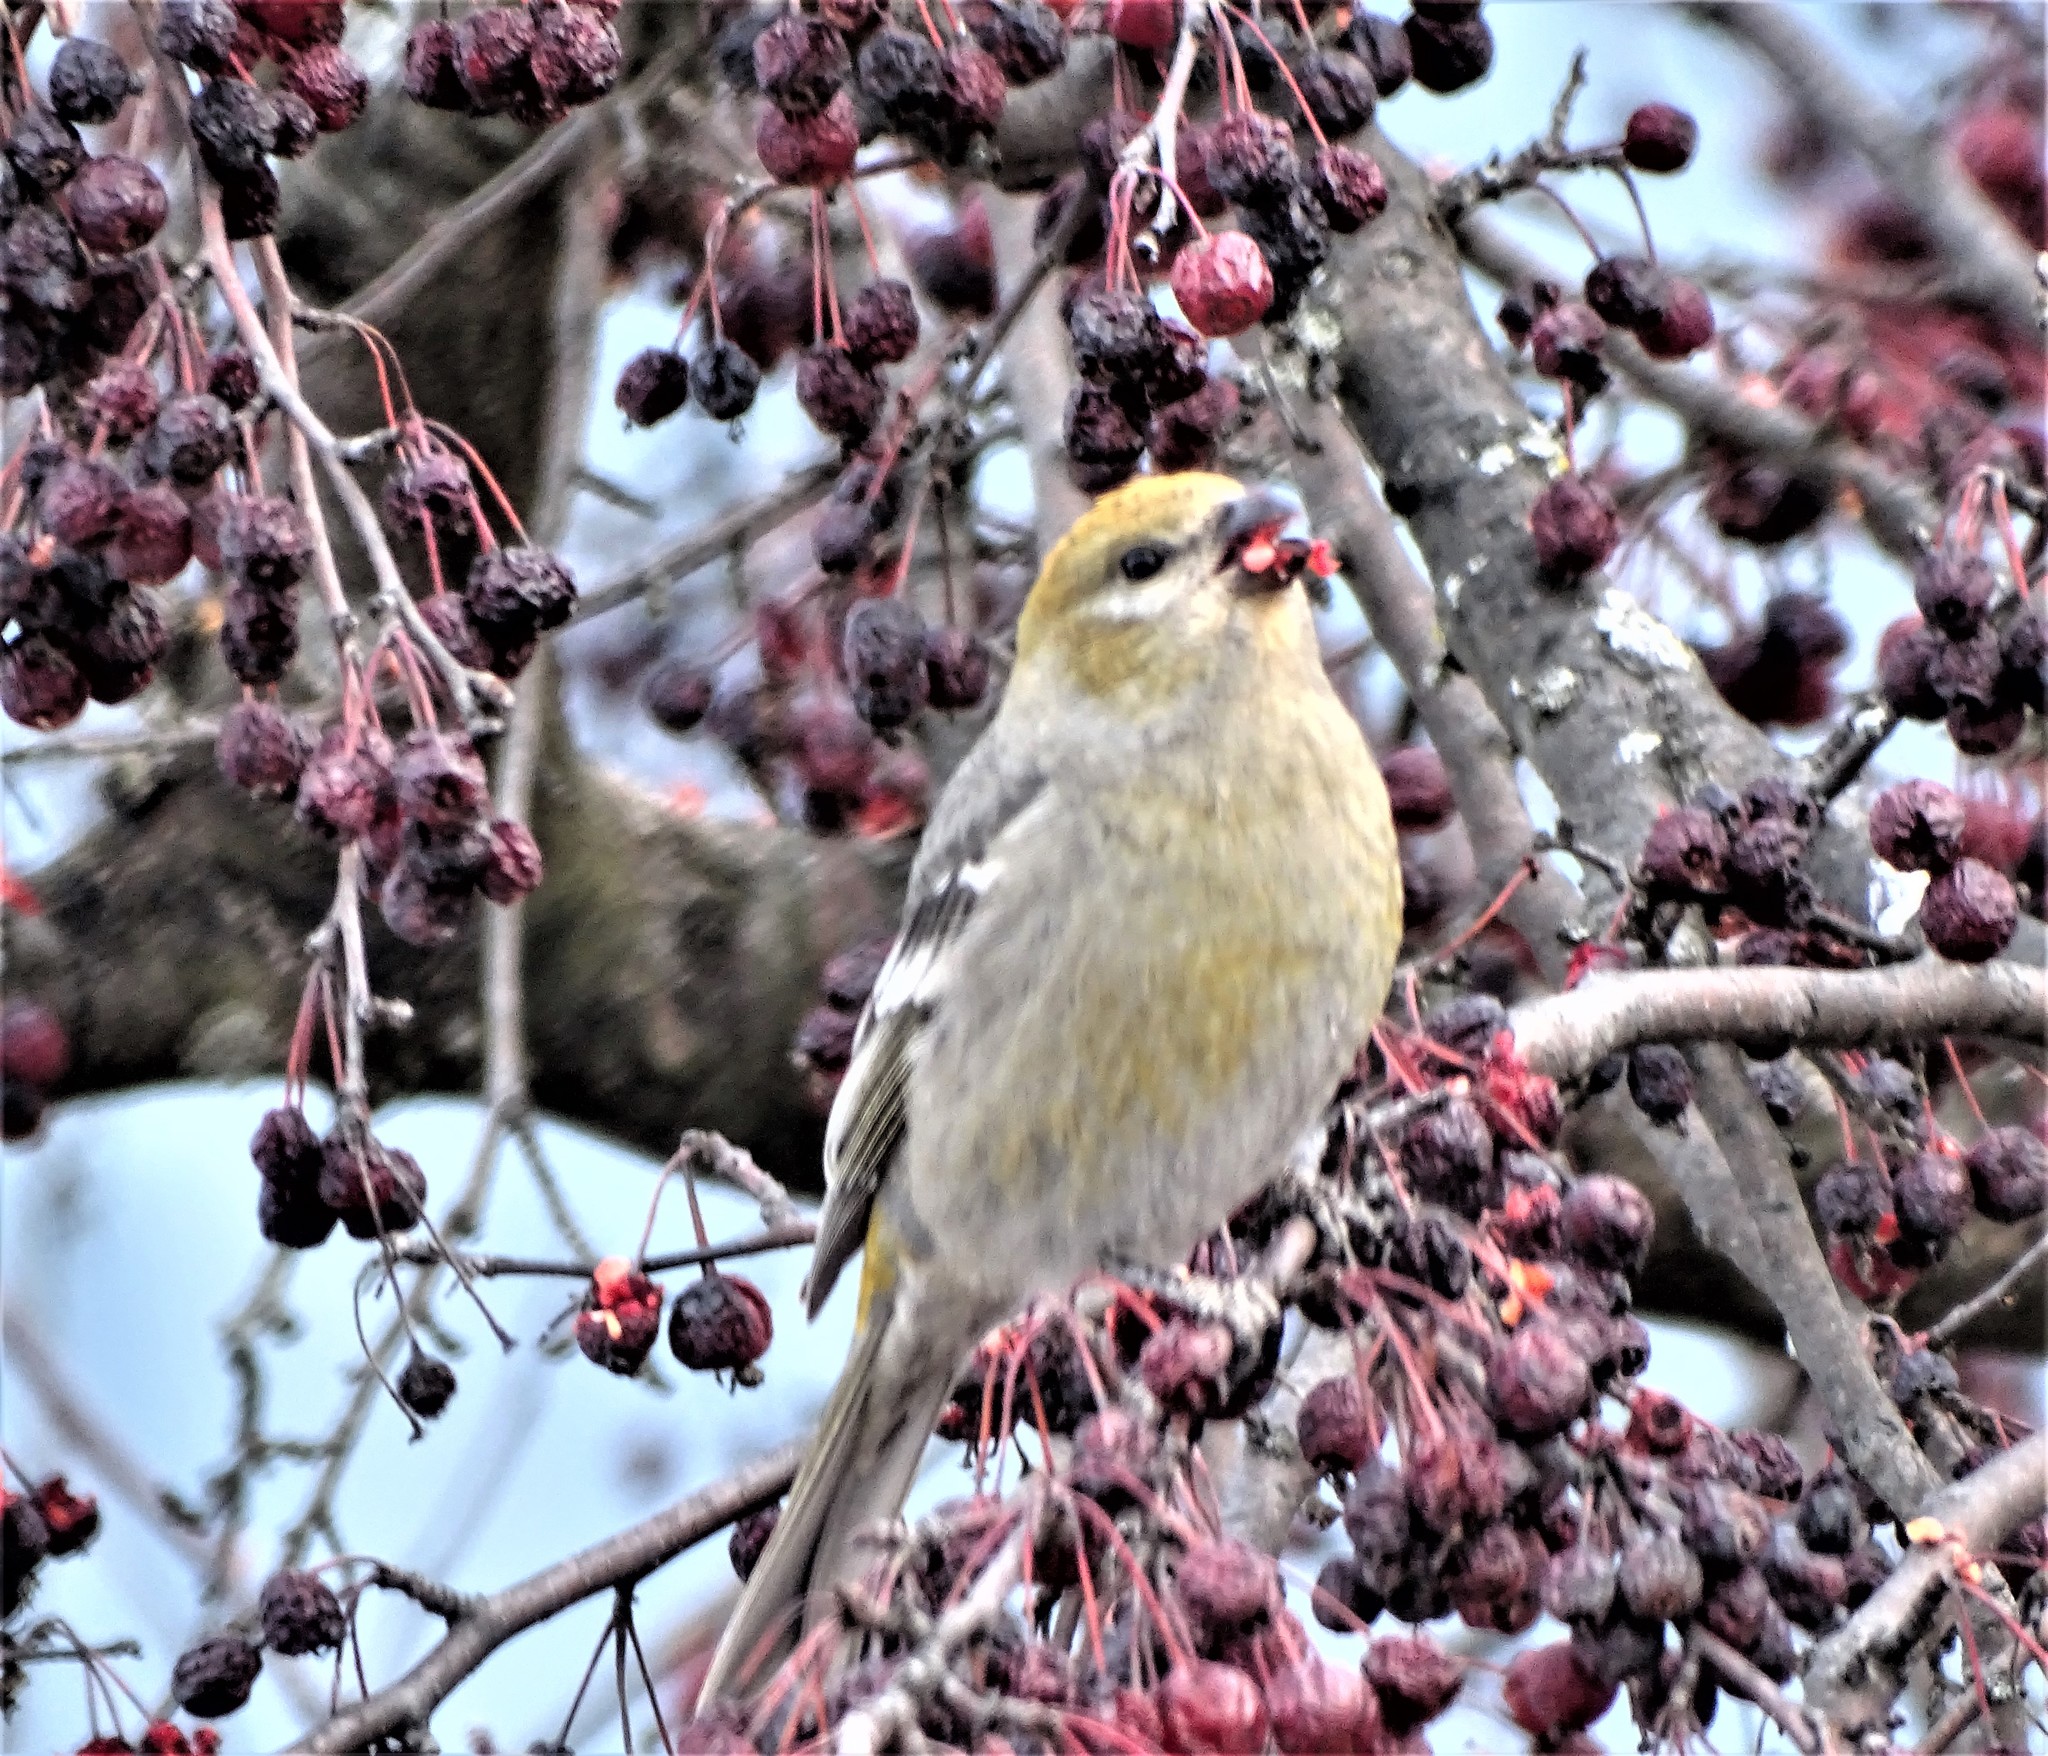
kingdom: Animalia
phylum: Chordata
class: Aves
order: Passeriformes
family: Fringillidae
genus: Pinicola
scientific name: Pinicola enucleator
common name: Pine grosbeak
